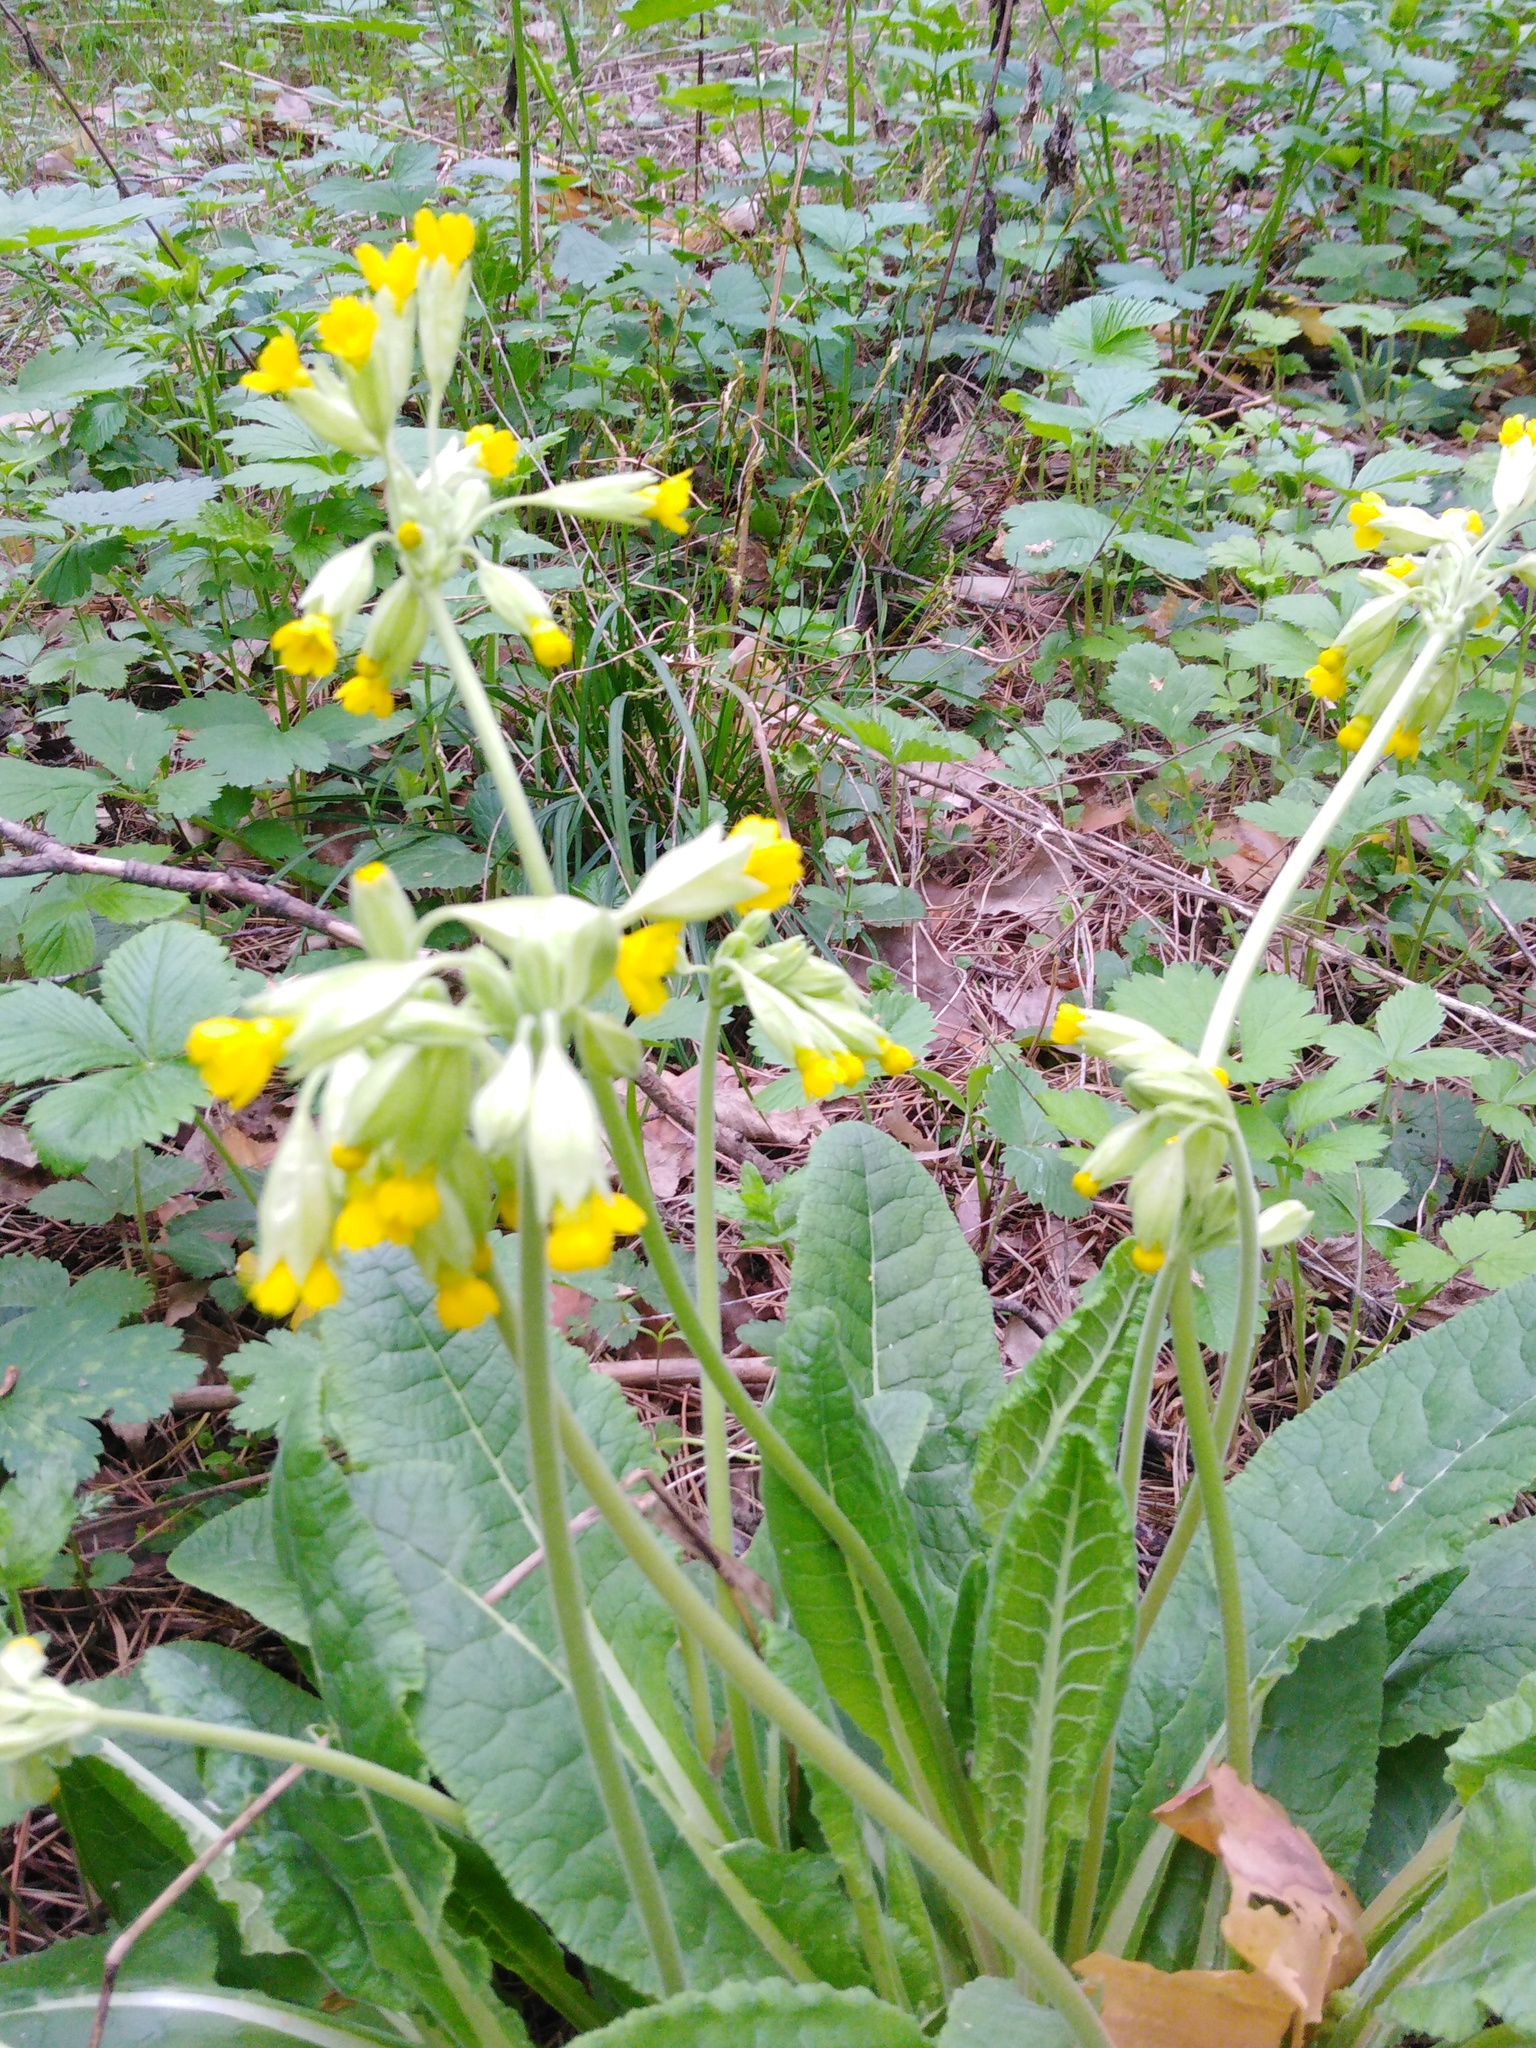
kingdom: Plantae
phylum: Tracheophyta
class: Magnoliopsida
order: Ericales
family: Primulaceae
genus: Primula
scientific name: Primula veris
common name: Cowslip
